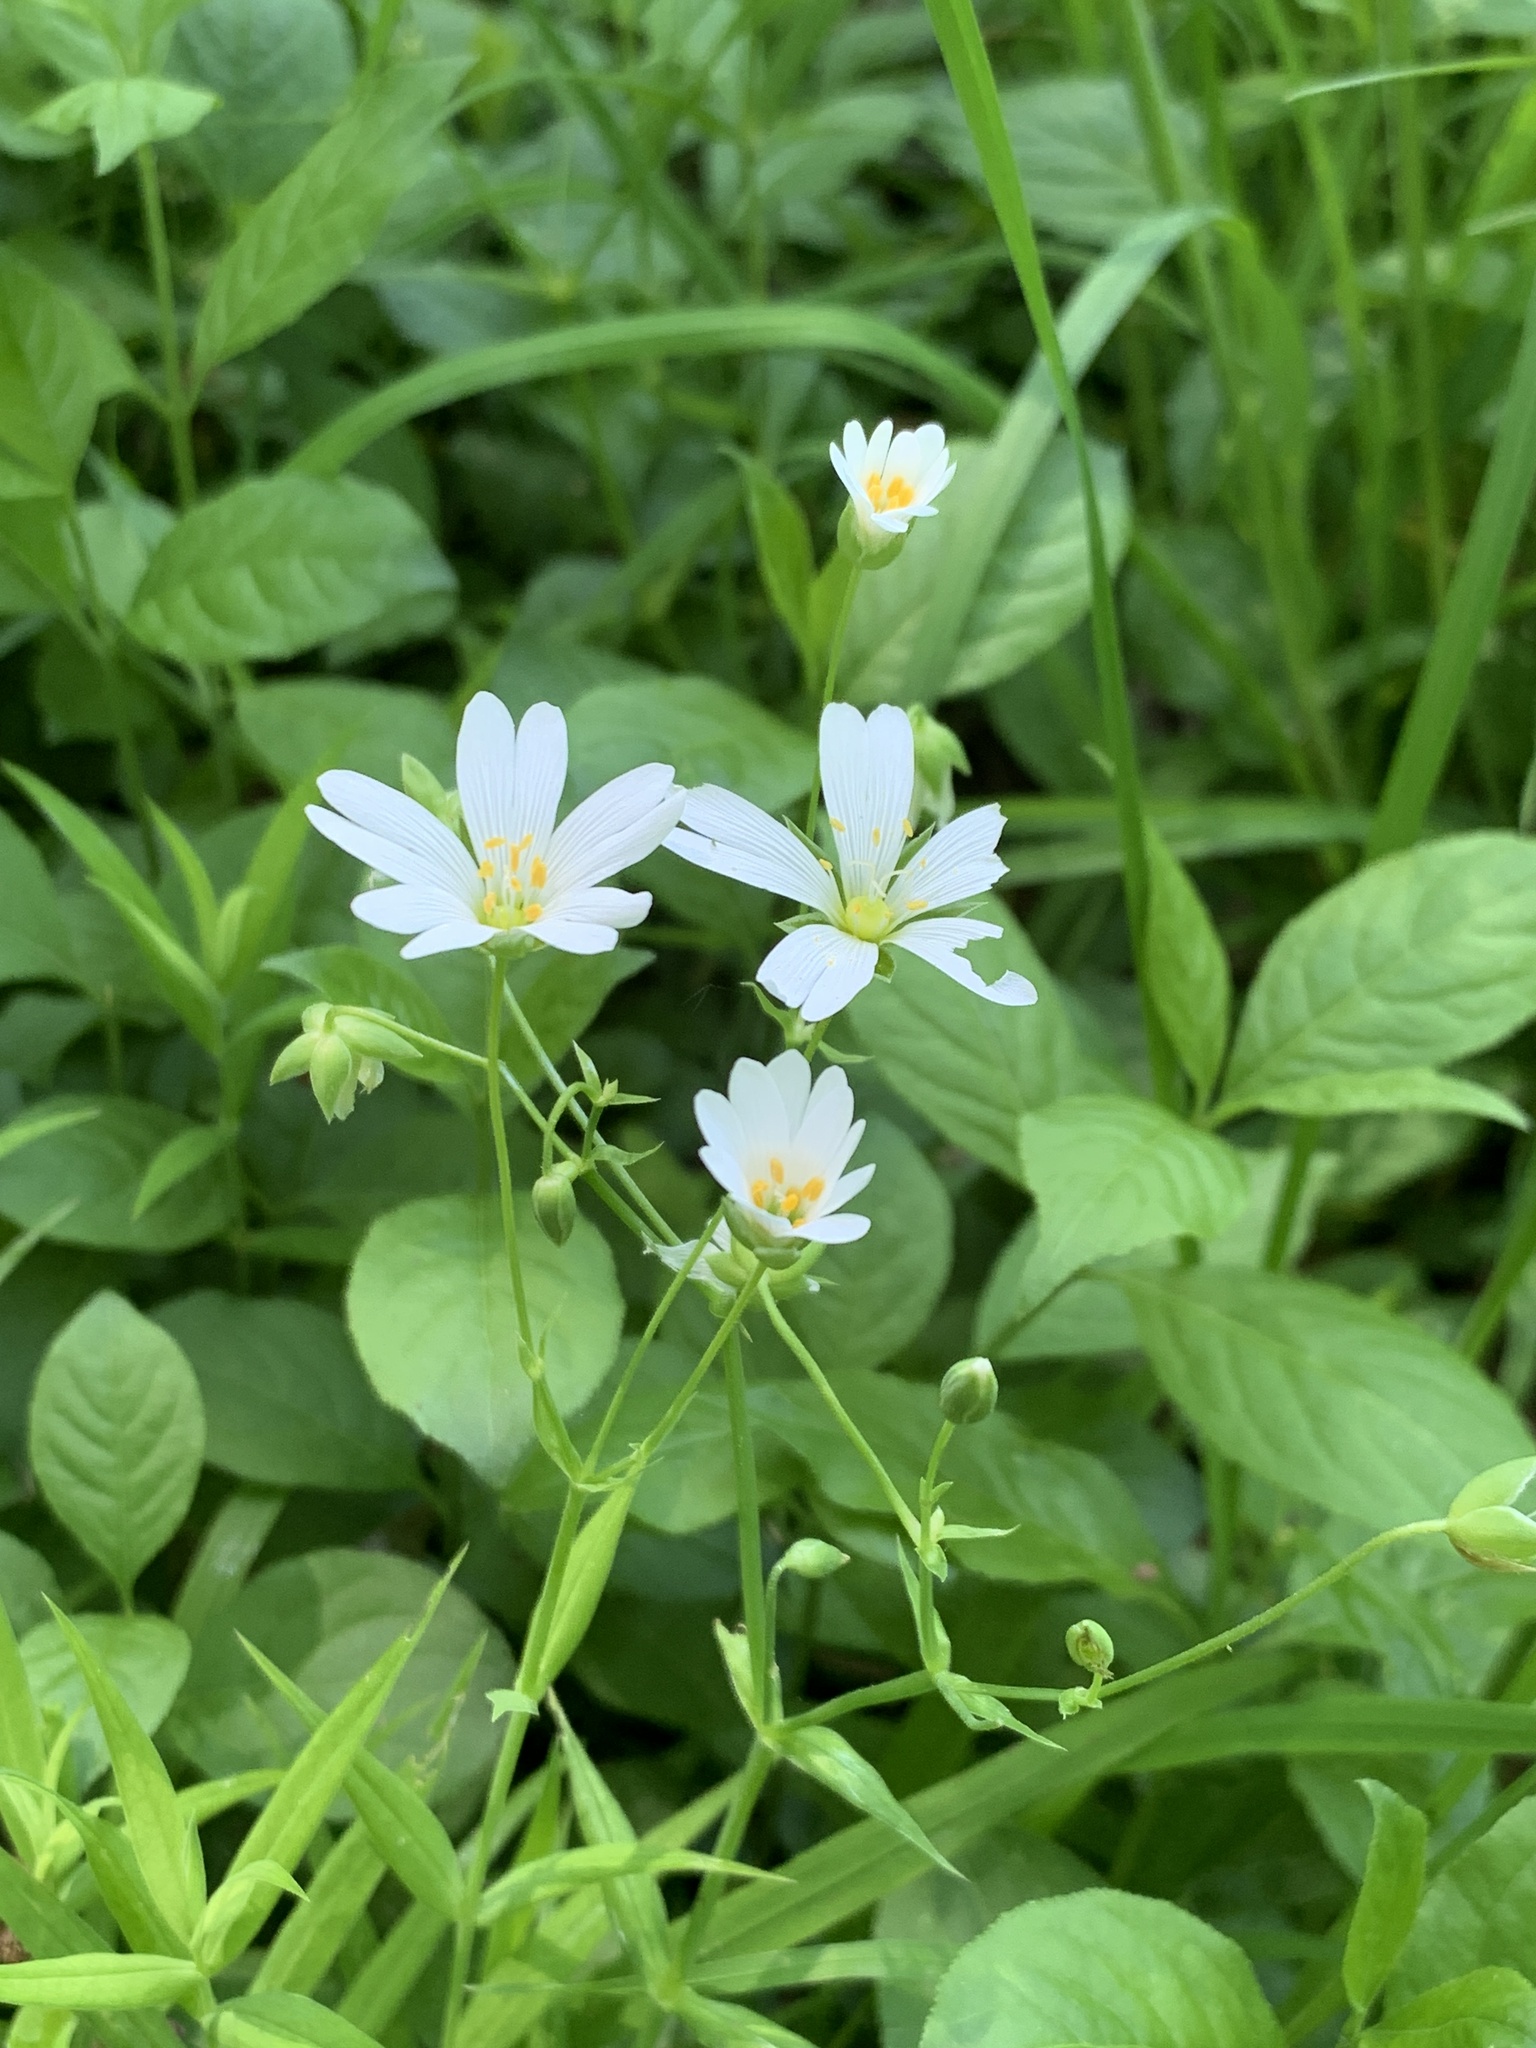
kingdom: Plantae
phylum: Tracheophyta
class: Magnoliopsida
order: Caryophyllales
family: Caryophyllaceae
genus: Rabelera
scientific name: Rabelera holostea
